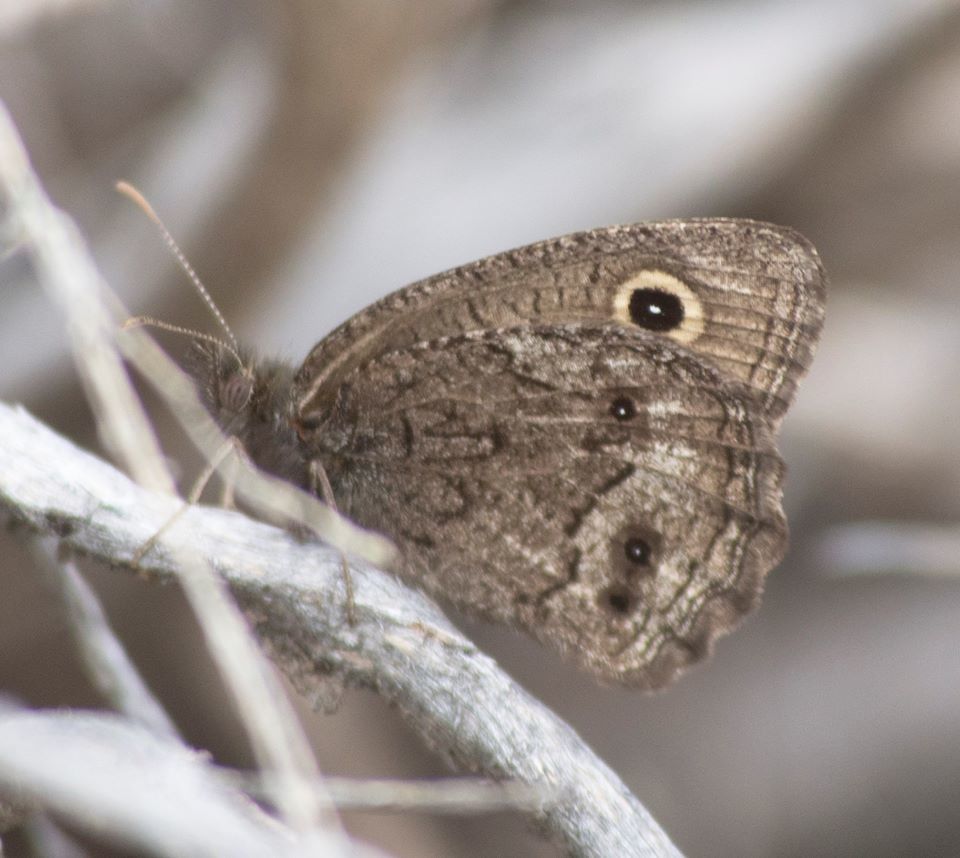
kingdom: Animalia
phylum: Arthropoda
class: Insecta
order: Lepidoptera
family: Nymphalidae
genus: Cercyonis
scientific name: Cercyonis oetus
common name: Small wood-nymph
